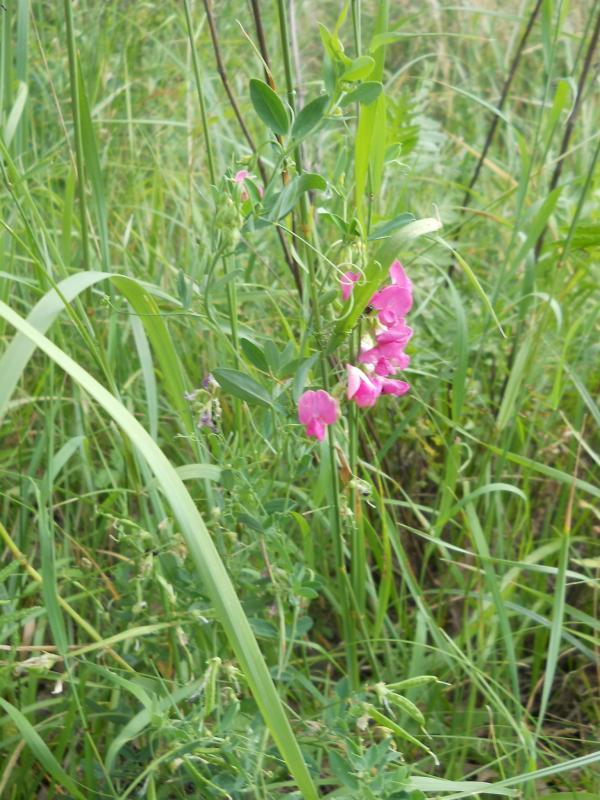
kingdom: Plantae
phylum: Tracheophyta
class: Magnoliopsida
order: Fabales
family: Fabaceae
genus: Lathyrus
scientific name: Lathyrus tuberosus
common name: Tuberous pea
